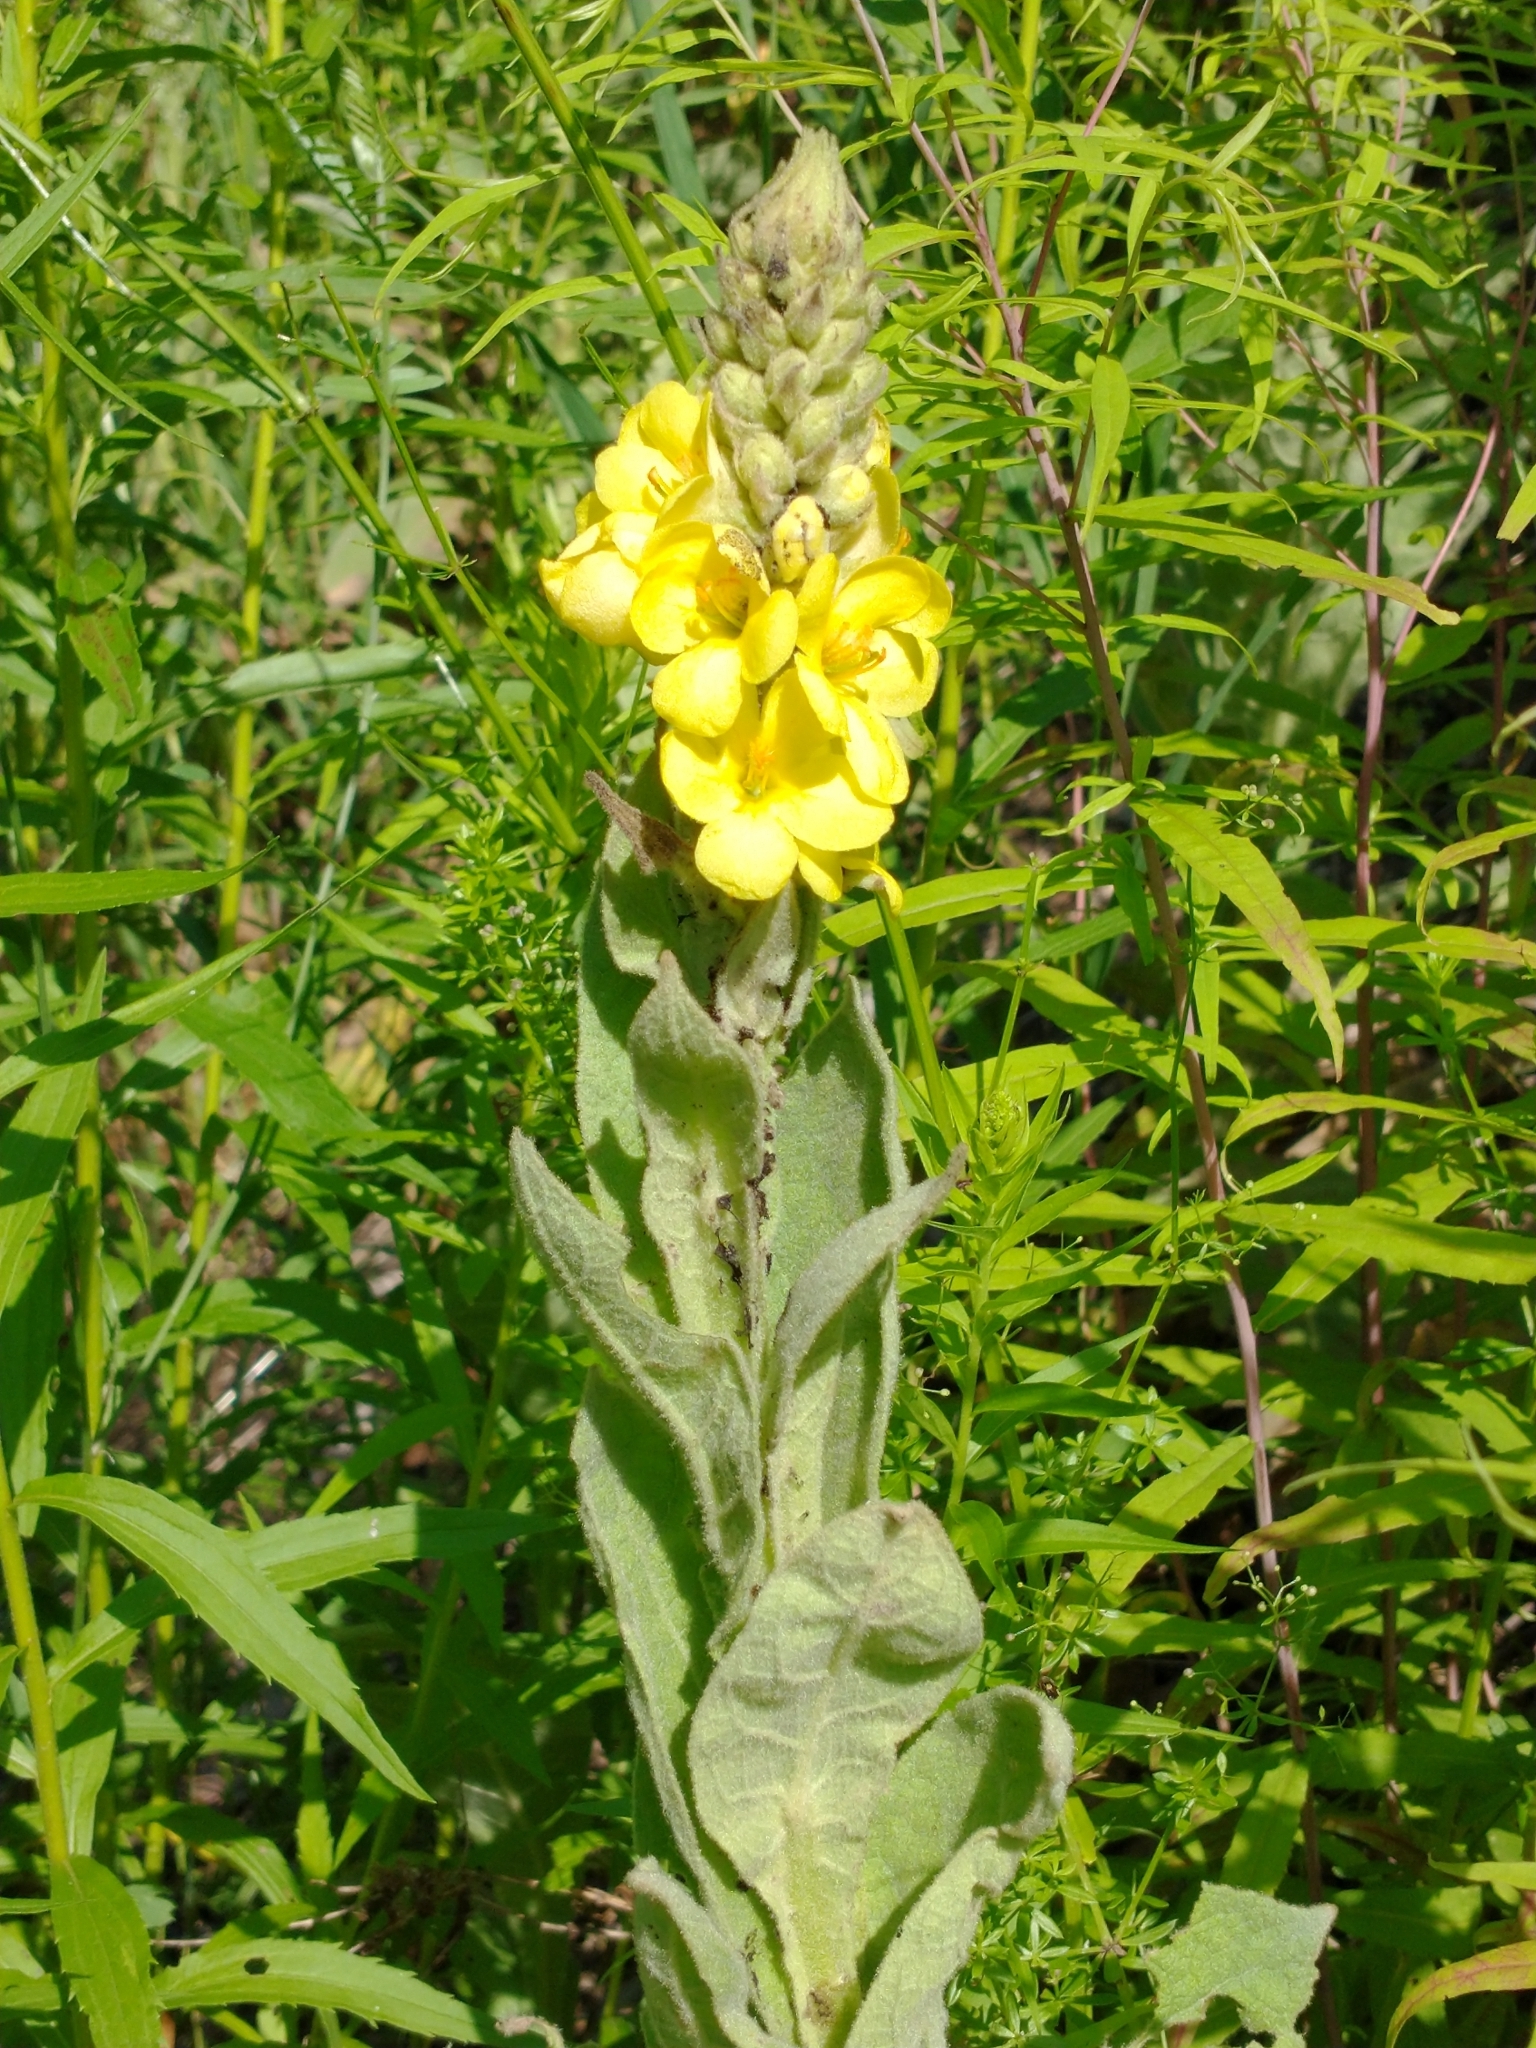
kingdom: Plantae
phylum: Tracheophyta
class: Magnoliopsida
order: Lamiales
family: Scrophulariaceae
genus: Verbascum
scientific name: Verbascum thapsus
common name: Common mullein
